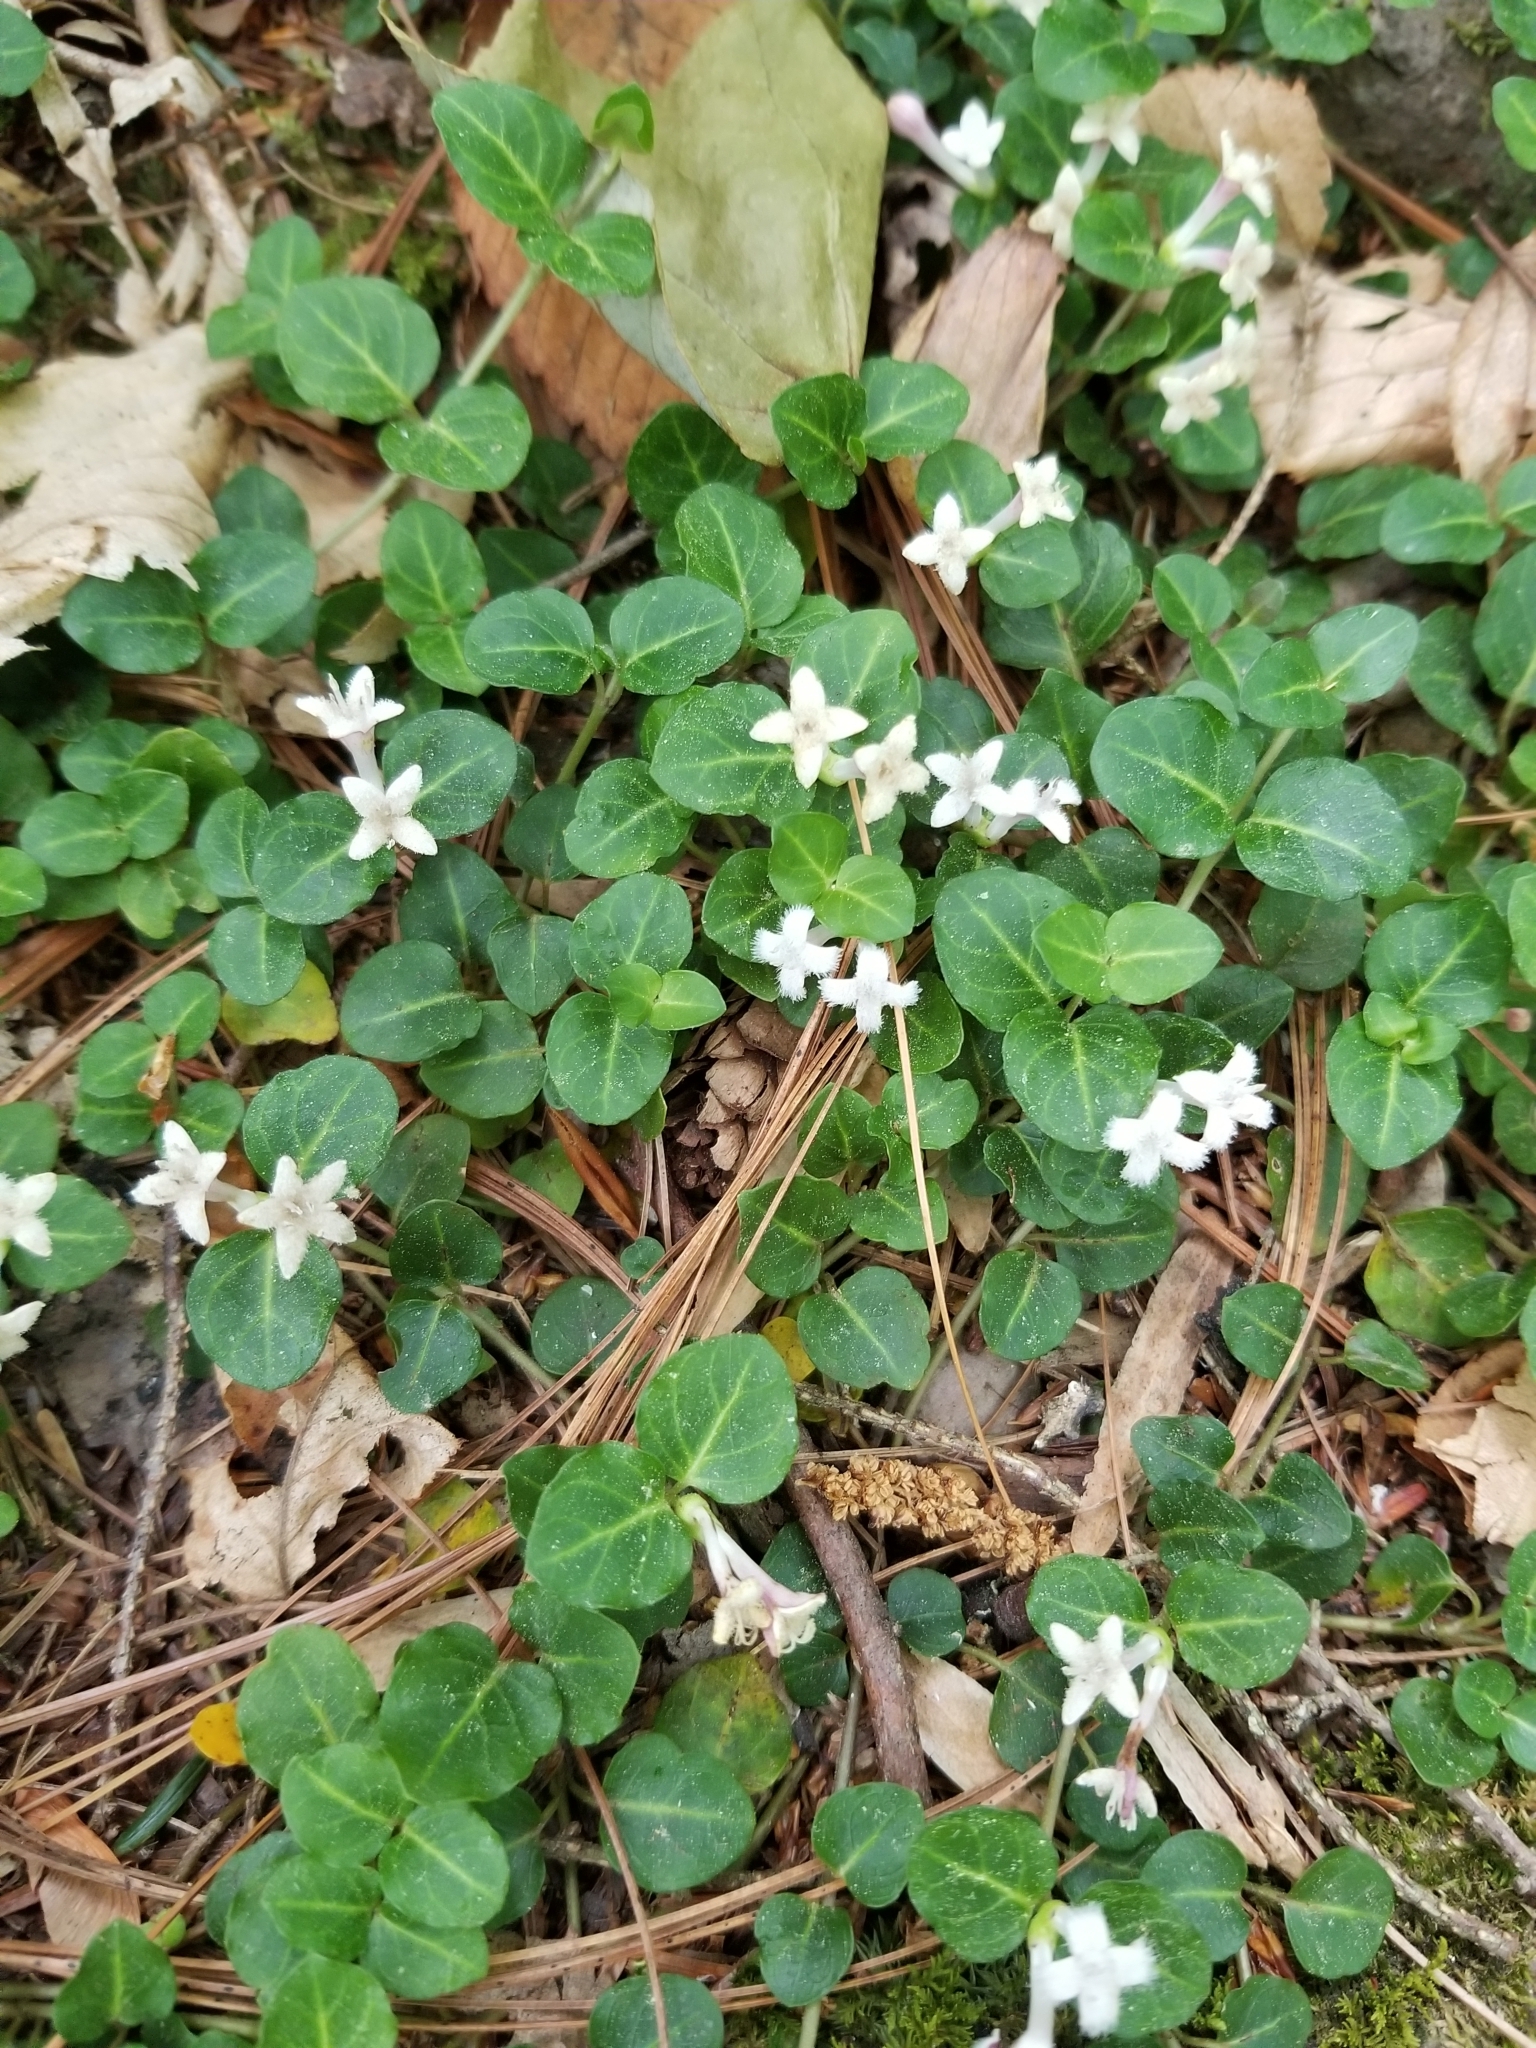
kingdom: Plantae
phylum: Tracheophyta
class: Magnoliopsida
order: Gentianales
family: Rubiaceae
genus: Mitchella
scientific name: Mitchella repens
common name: Partridge-berry
